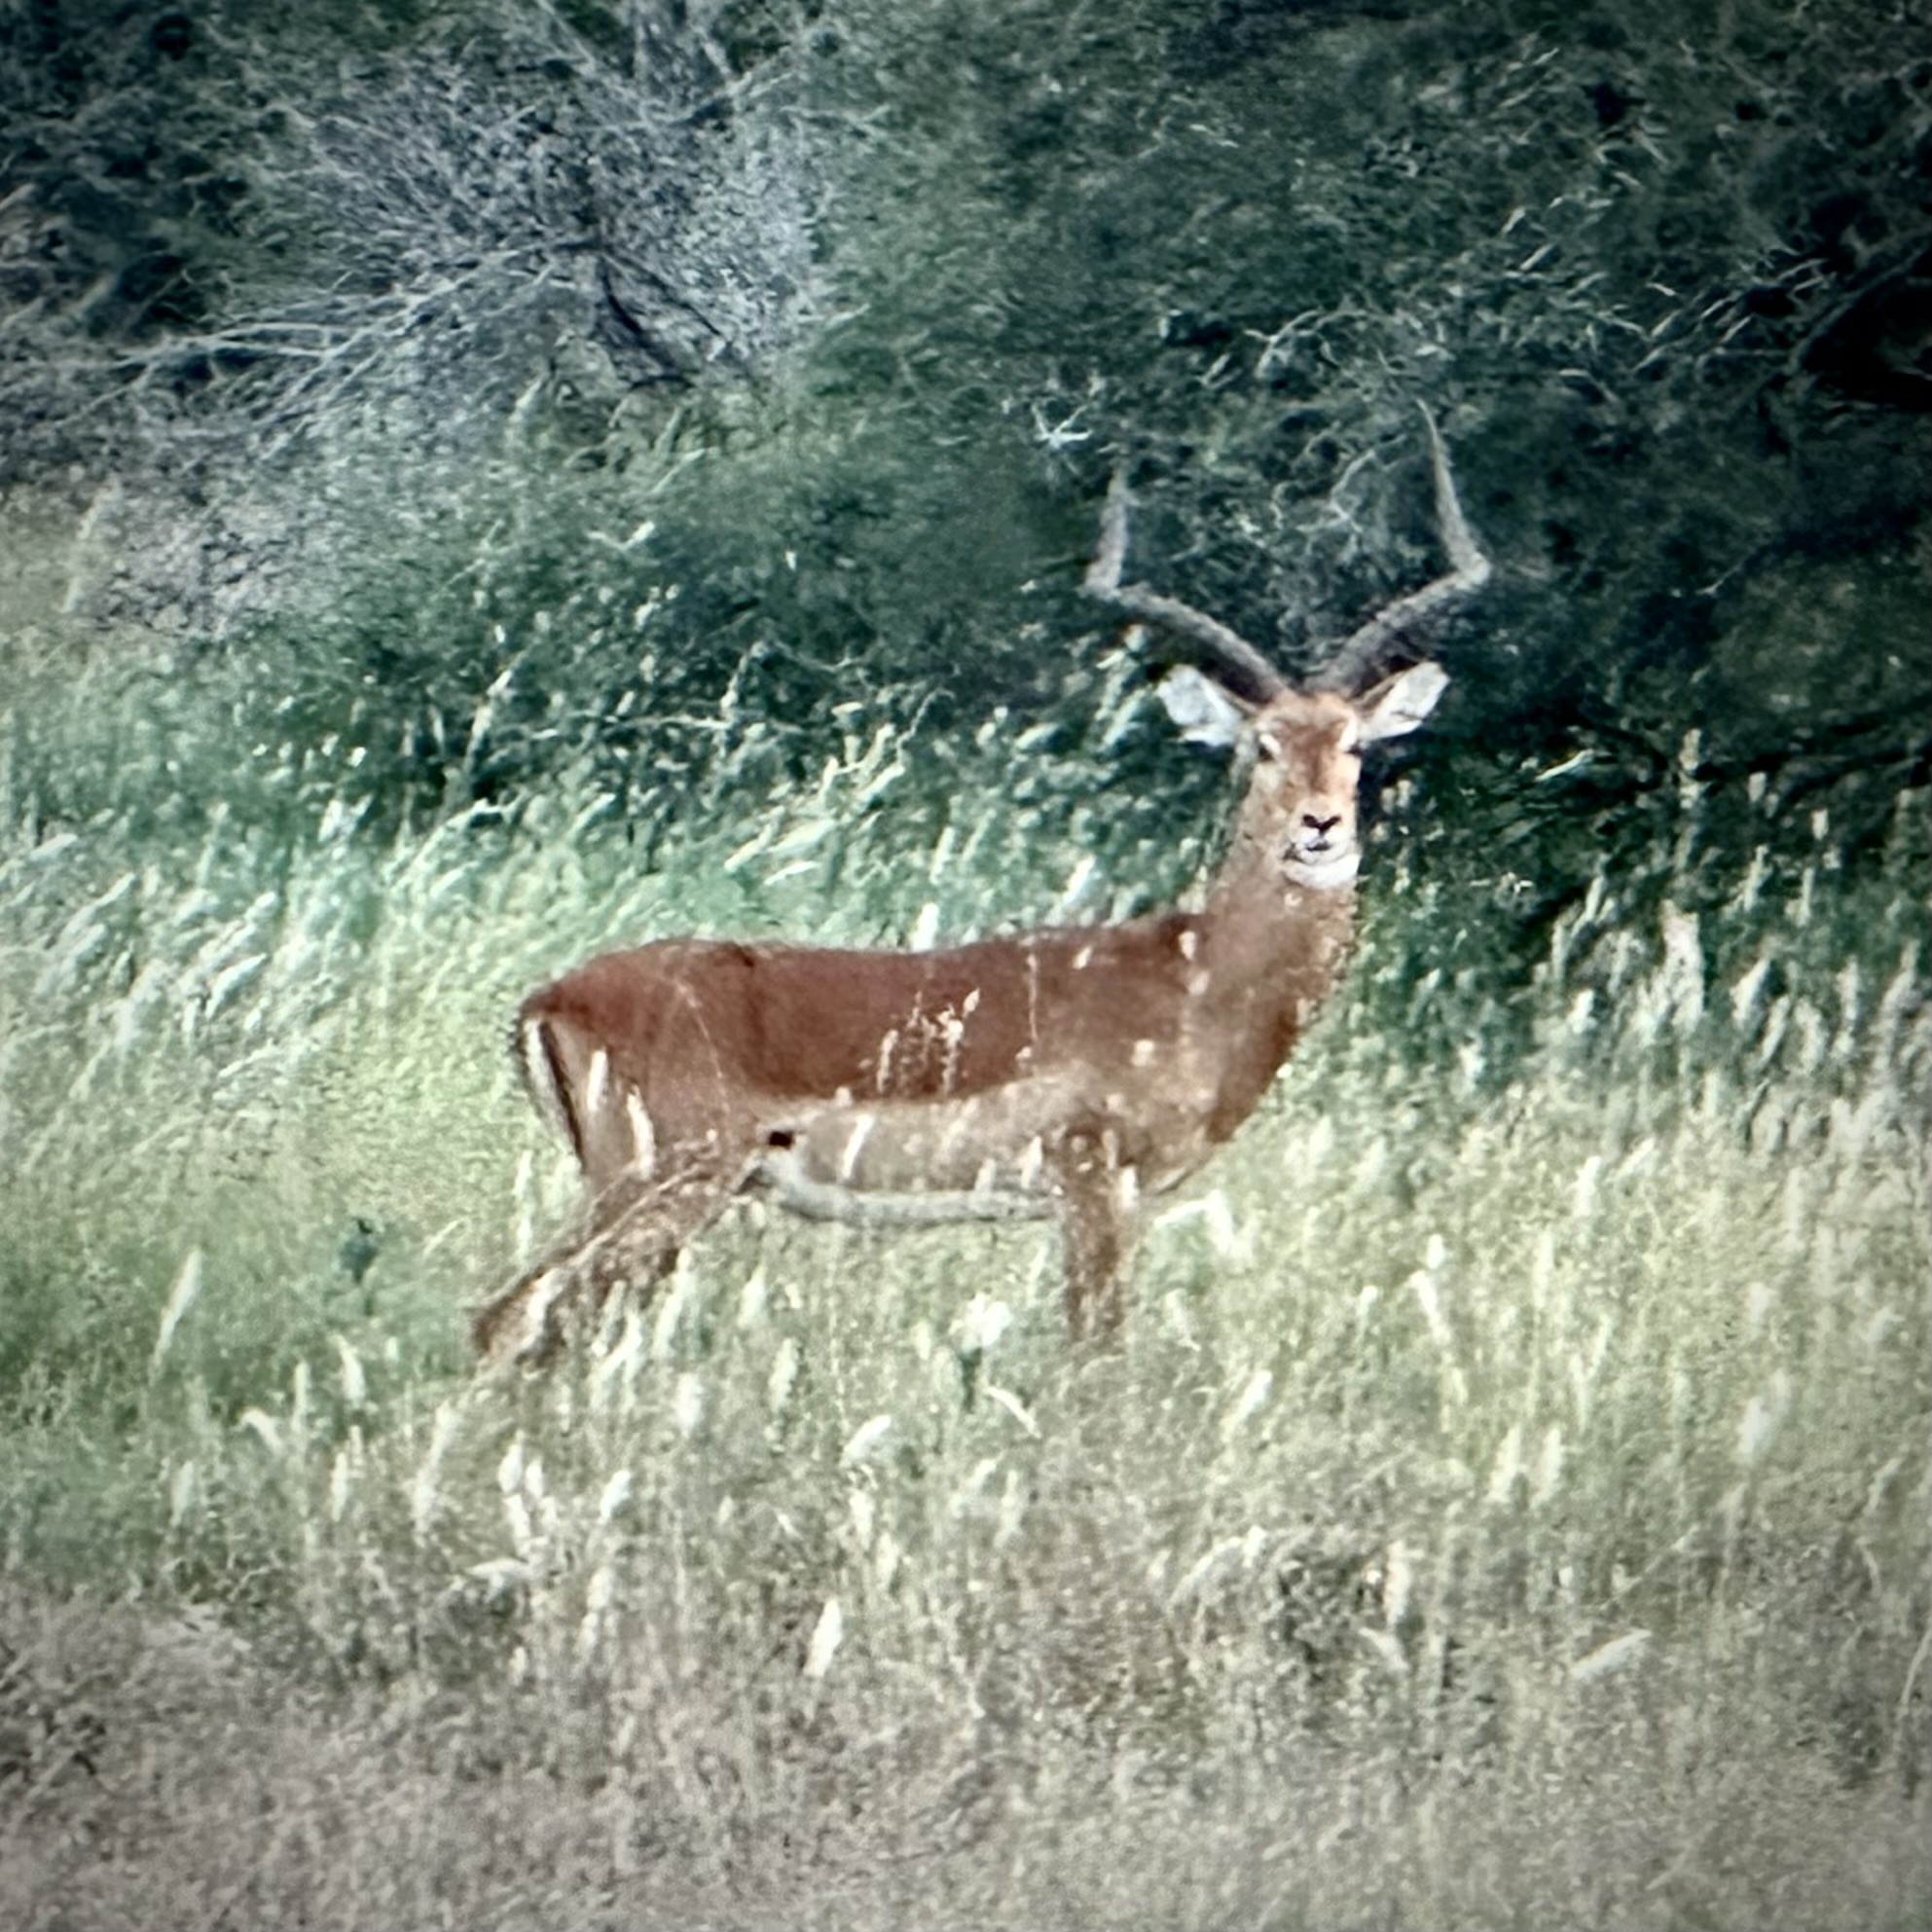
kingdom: Animalia
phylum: Chordata
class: Mammalia
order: Artiodactyla
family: Bovidae
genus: Aepyceros
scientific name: Aepyceros melampus
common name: Impala
